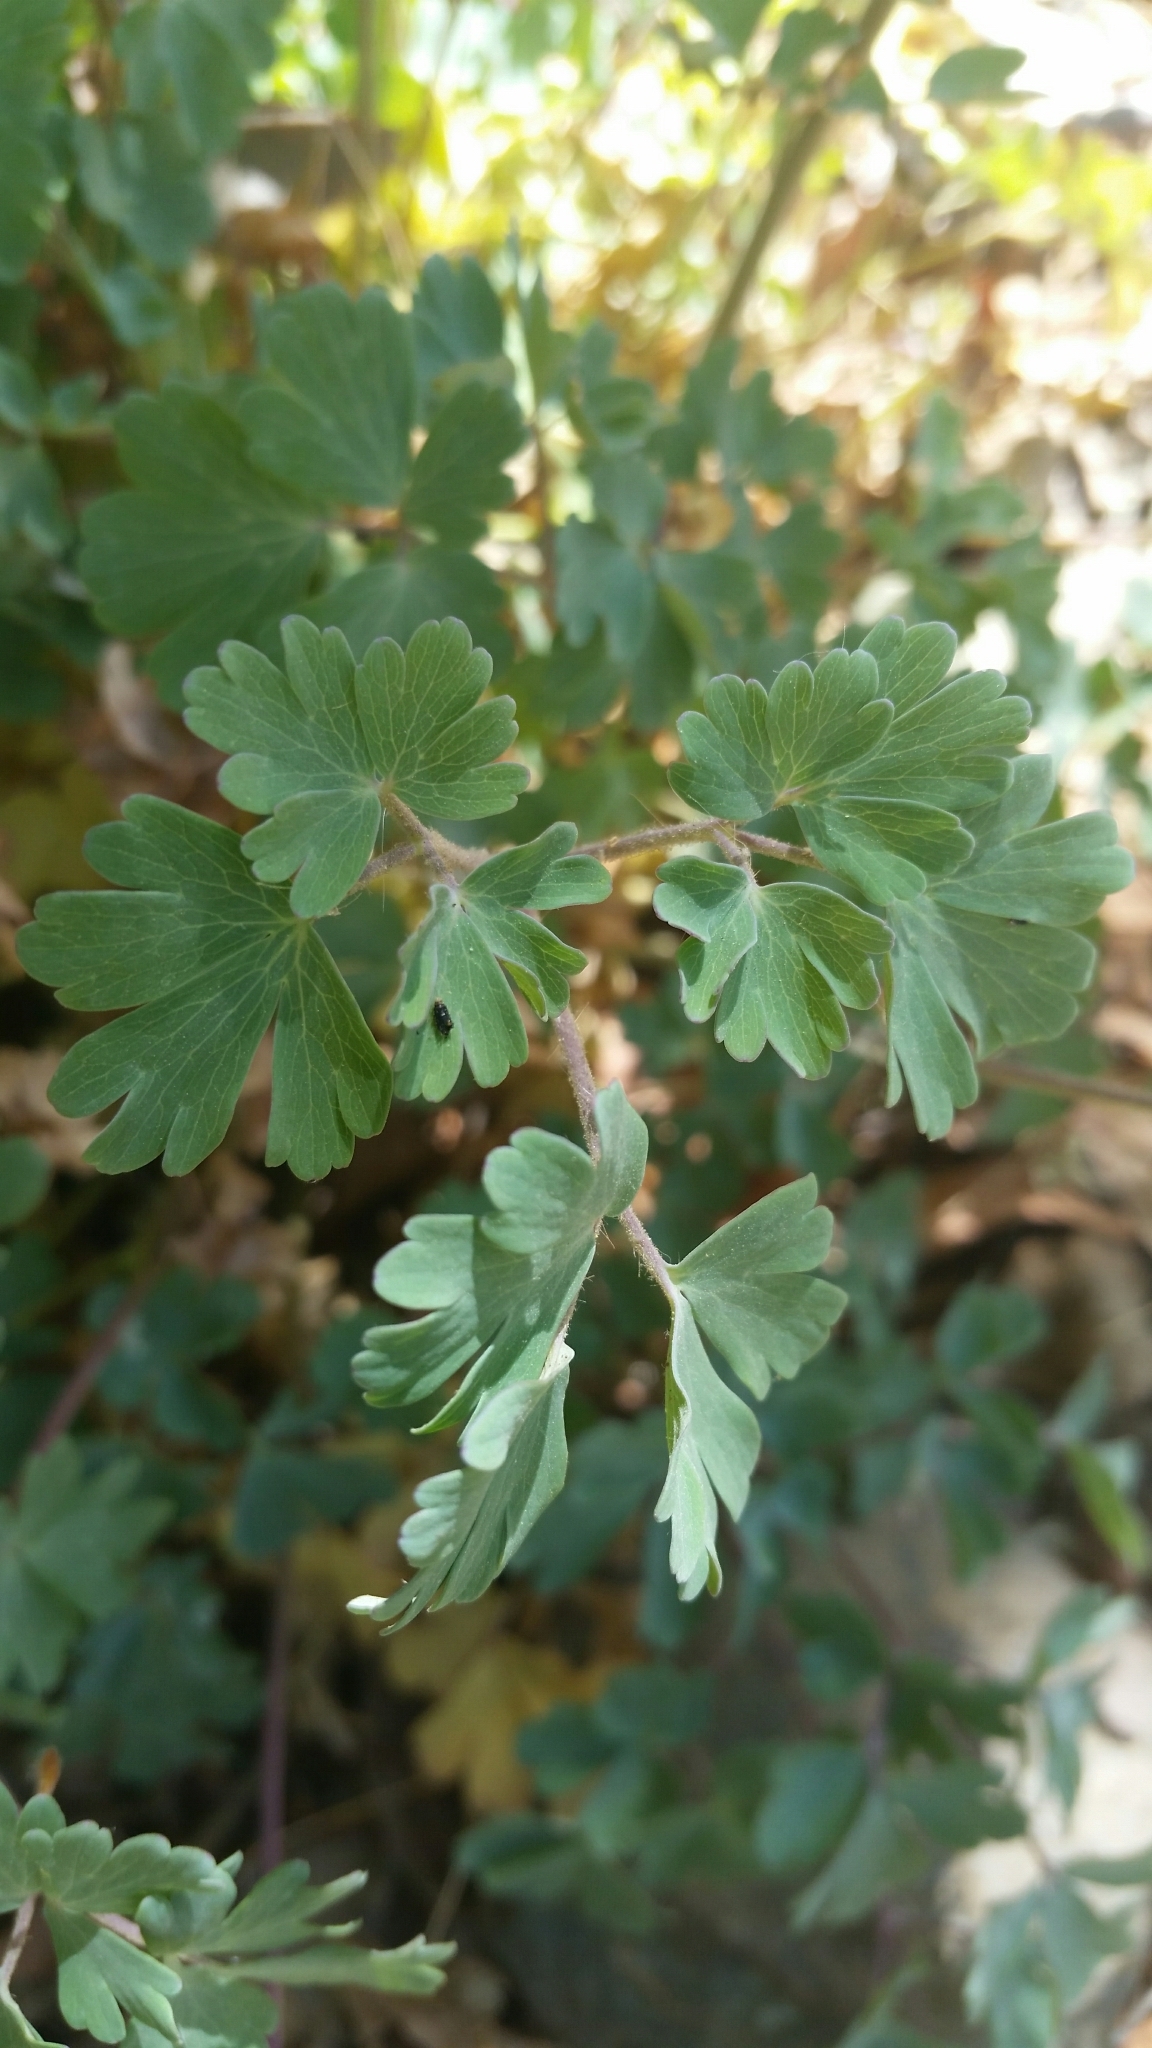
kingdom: Plantae
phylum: Tracheophyta
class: Magnoliopsida
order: Ranunculales
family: Ranunculaceae
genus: Aquilegia
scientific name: Aquilegia chrysantha
